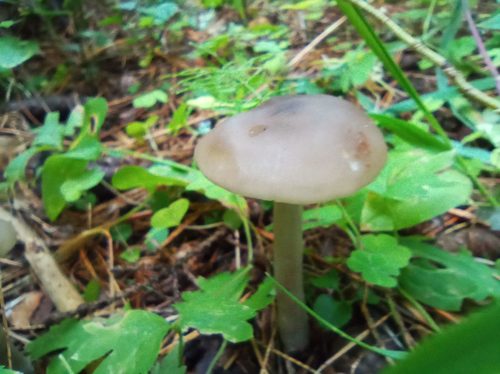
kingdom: Fungi
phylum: Basidiomycota
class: Agaricomycetes
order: Agaricales
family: Entolomataceae
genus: Entoloma
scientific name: Entoloma
